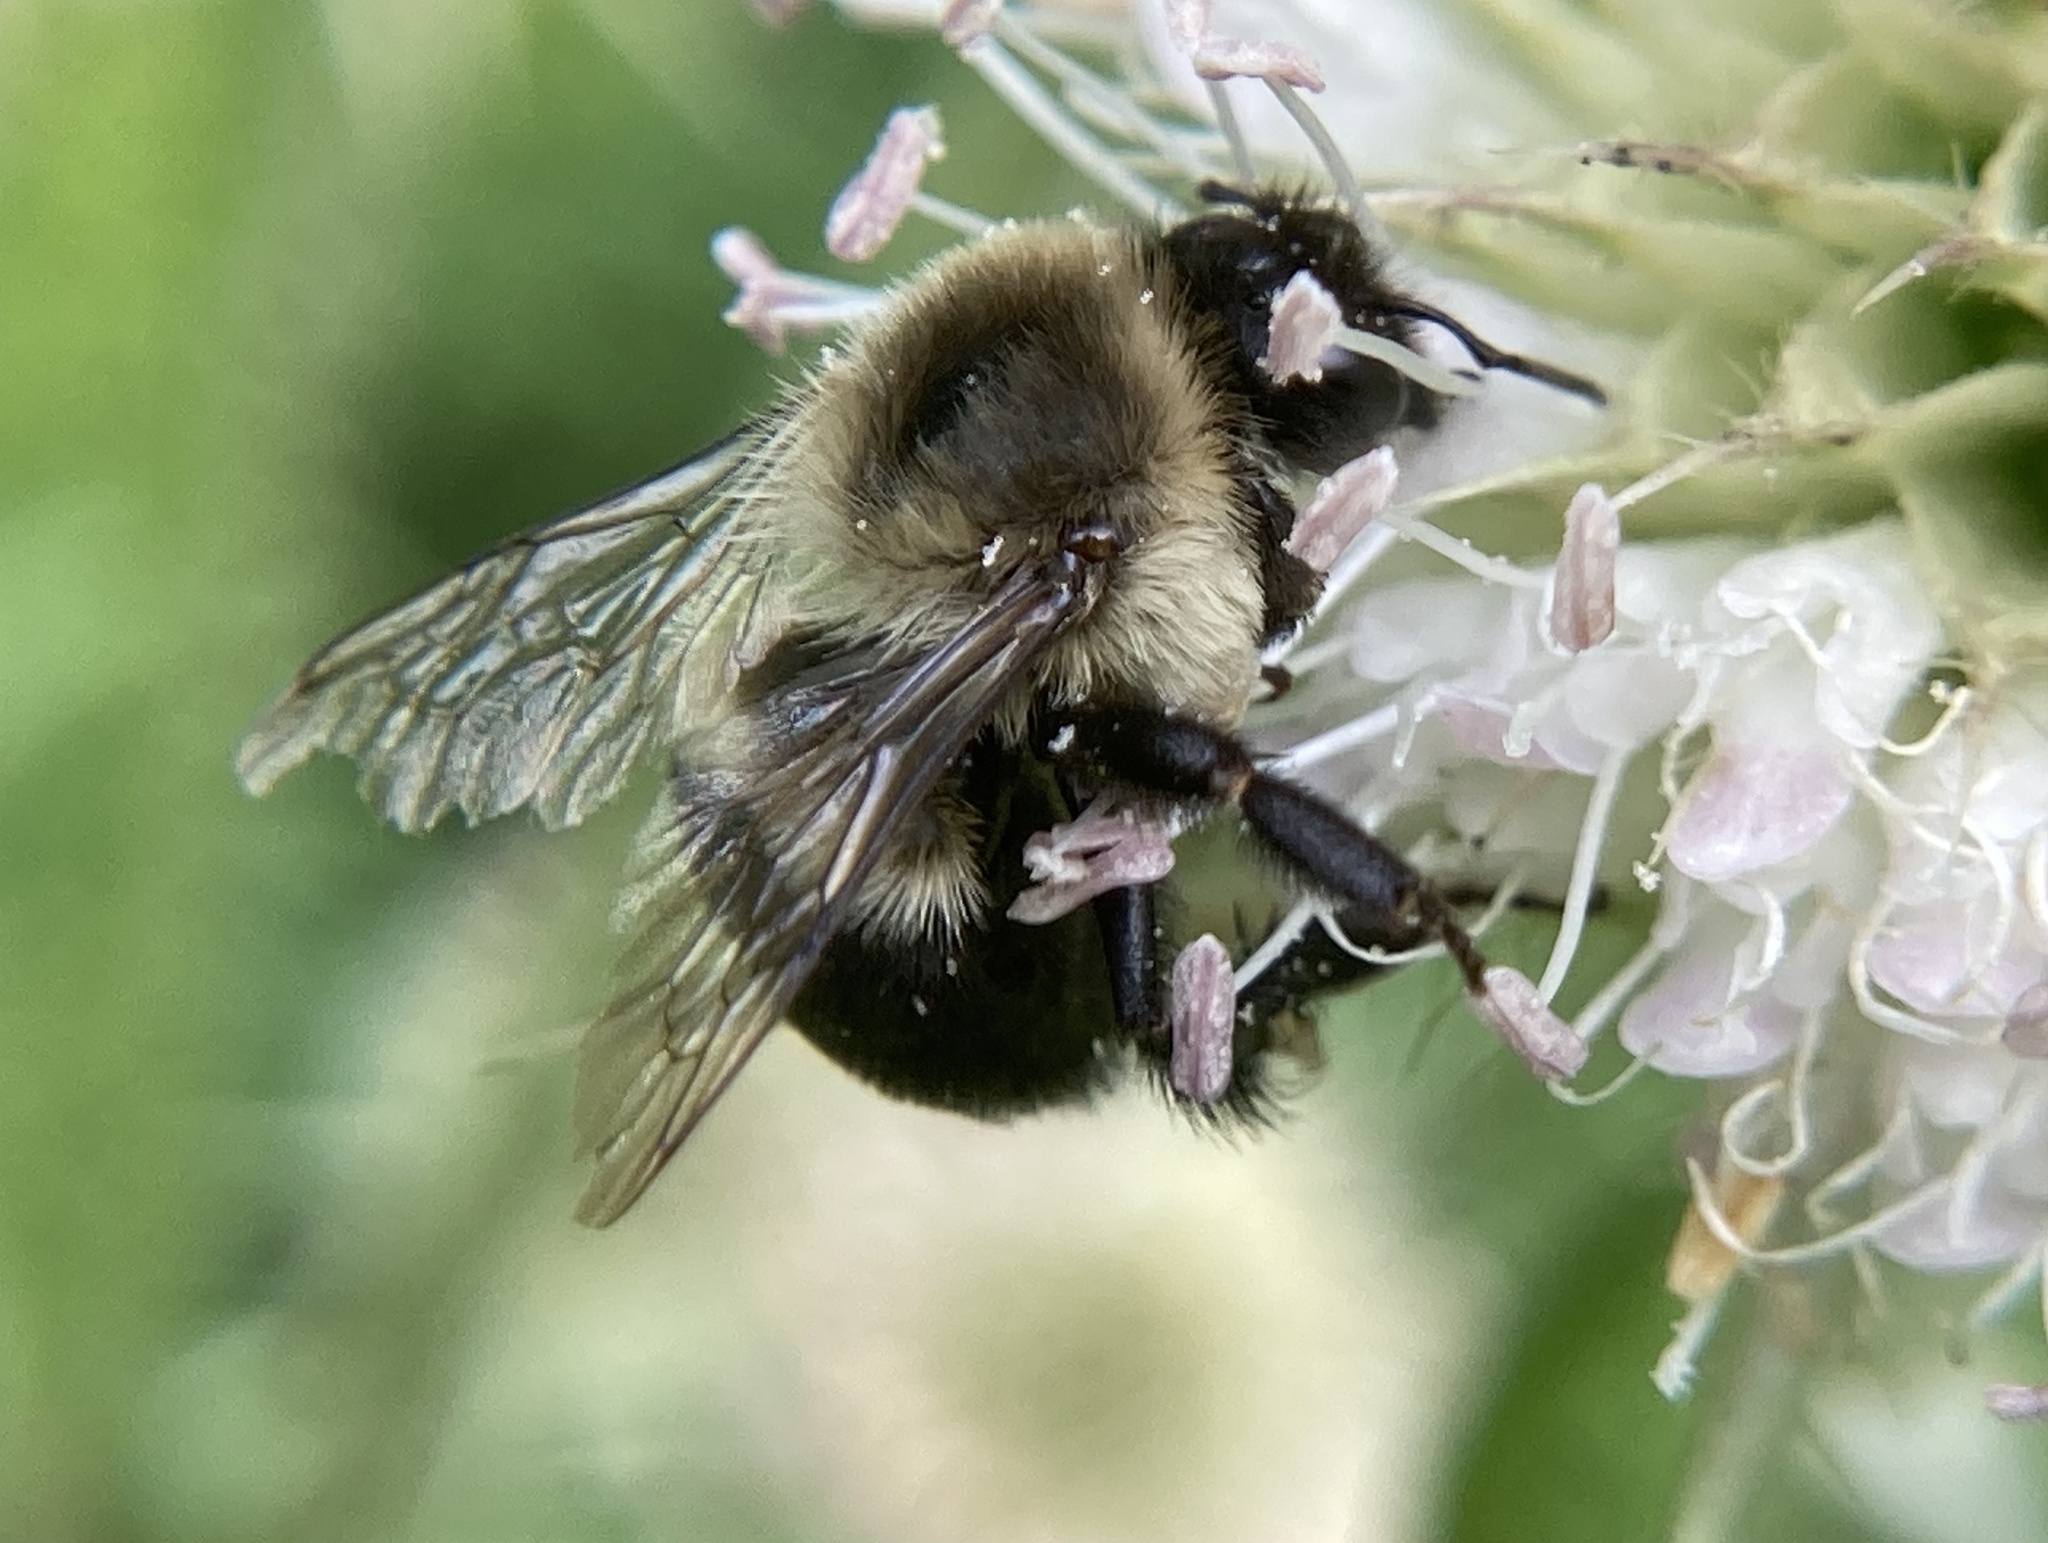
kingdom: Animalia
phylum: Arthropoda
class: Insecta
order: Hymenoptera
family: Apidae
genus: Bombus
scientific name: Bombus impatiens
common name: Common eastern bumble bee
